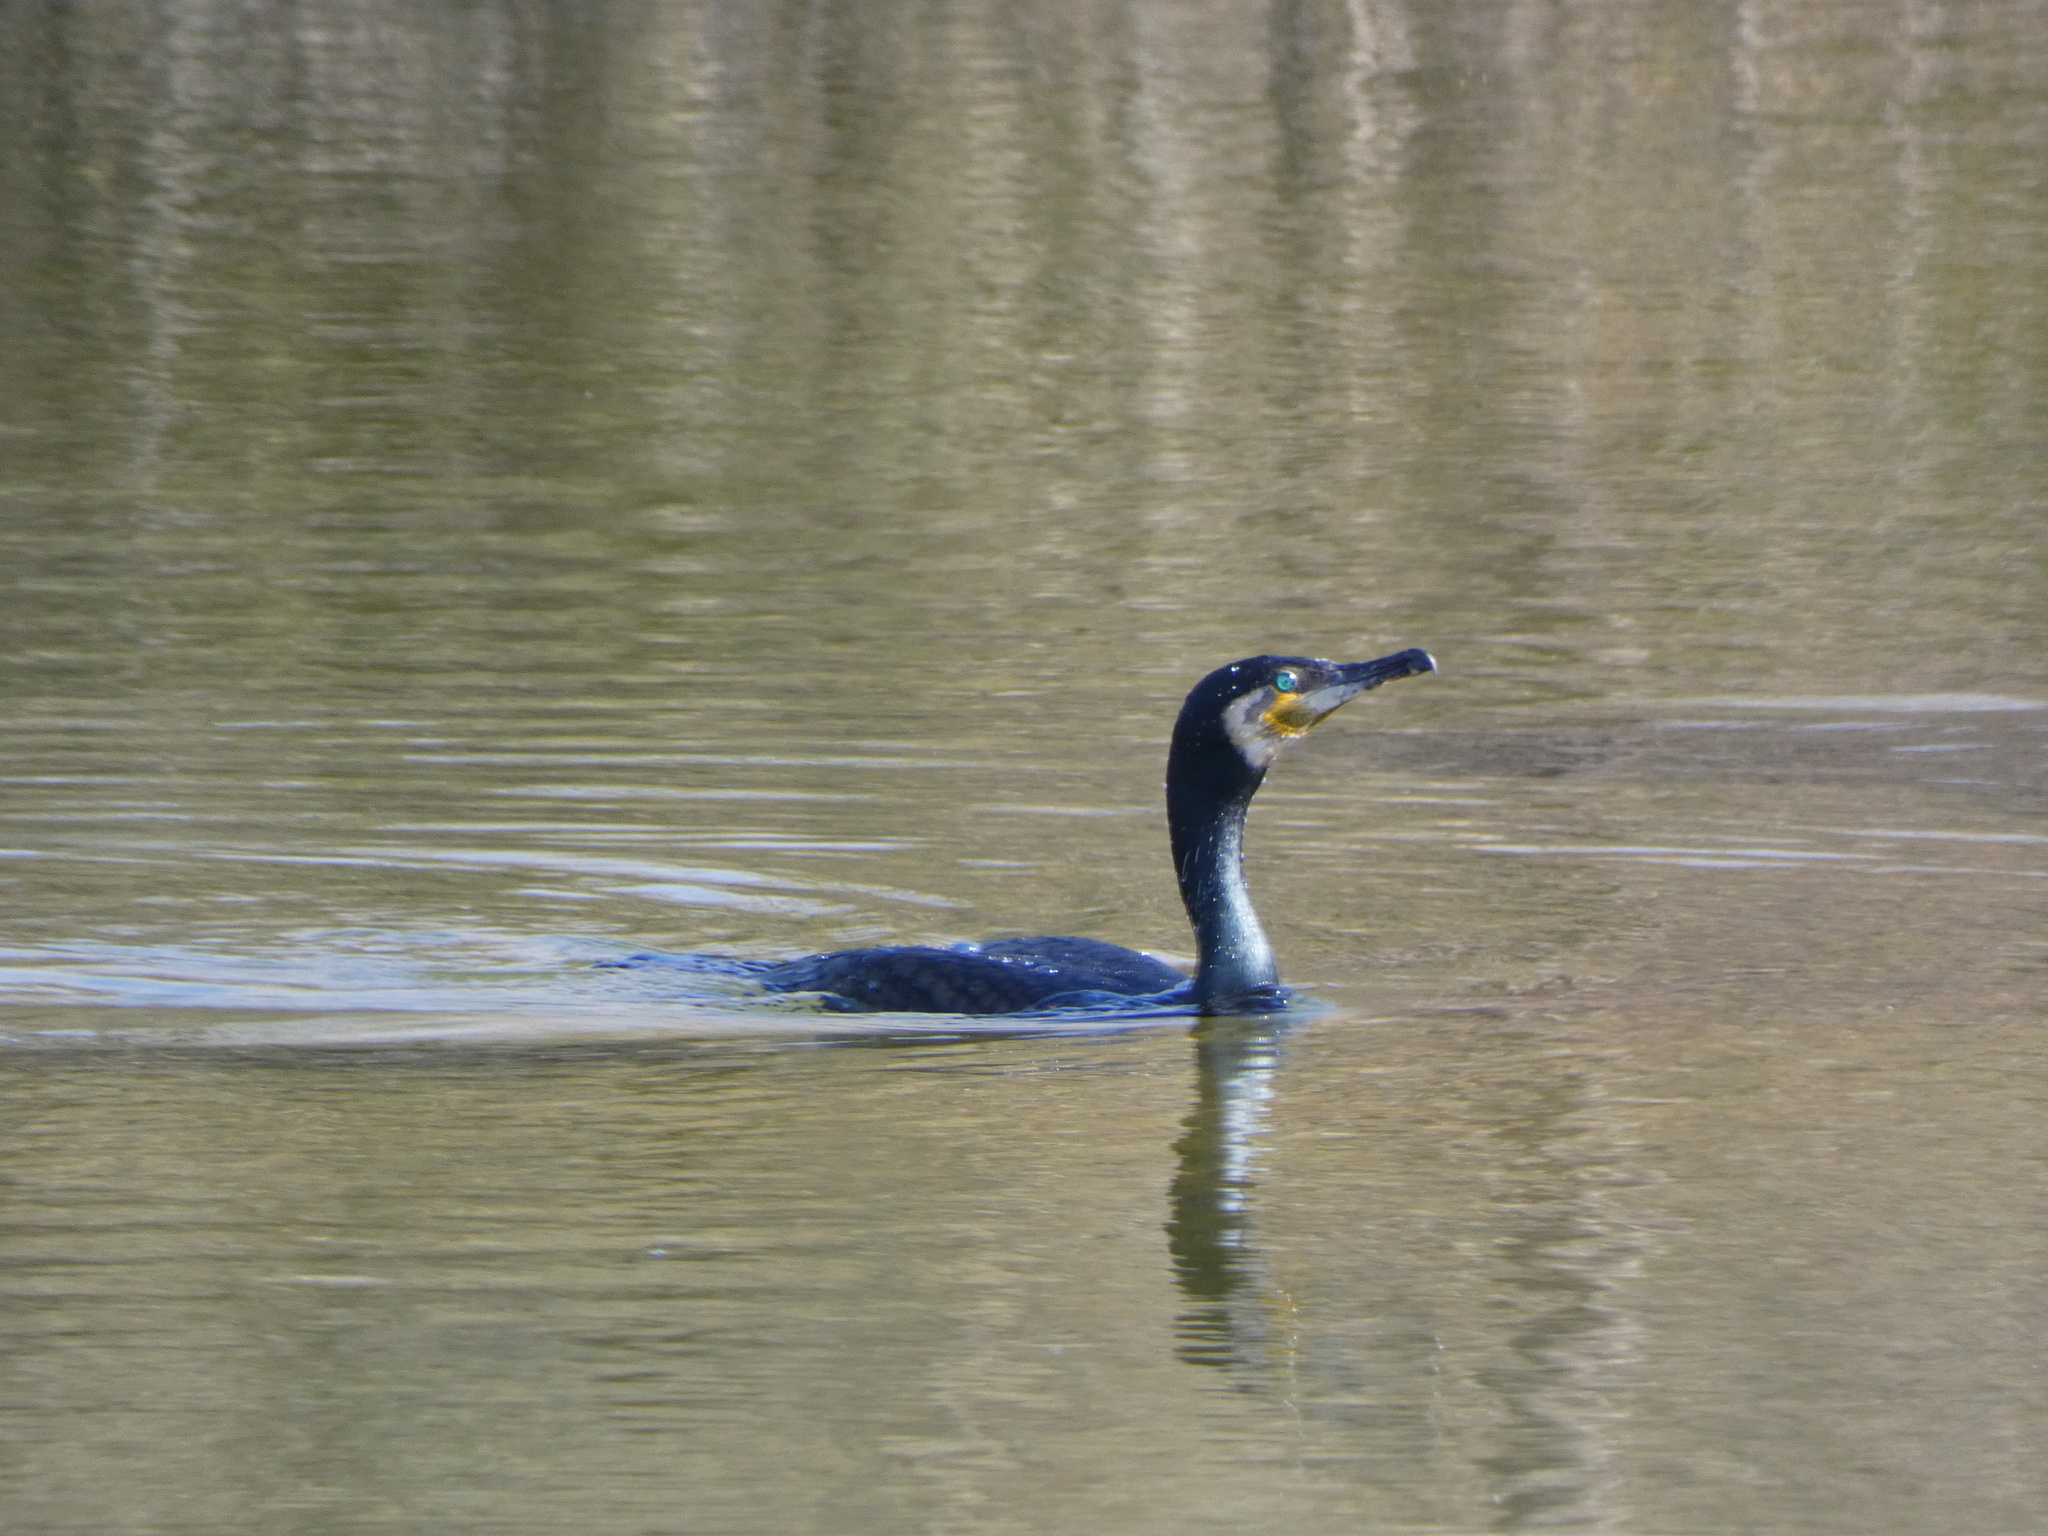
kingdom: Animalia
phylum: Chordata
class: Aves
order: Suliformes
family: Phalacrocoracidae
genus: Phalacrocorax
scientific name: Phalacrocorax carbo
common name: Great cormorant
